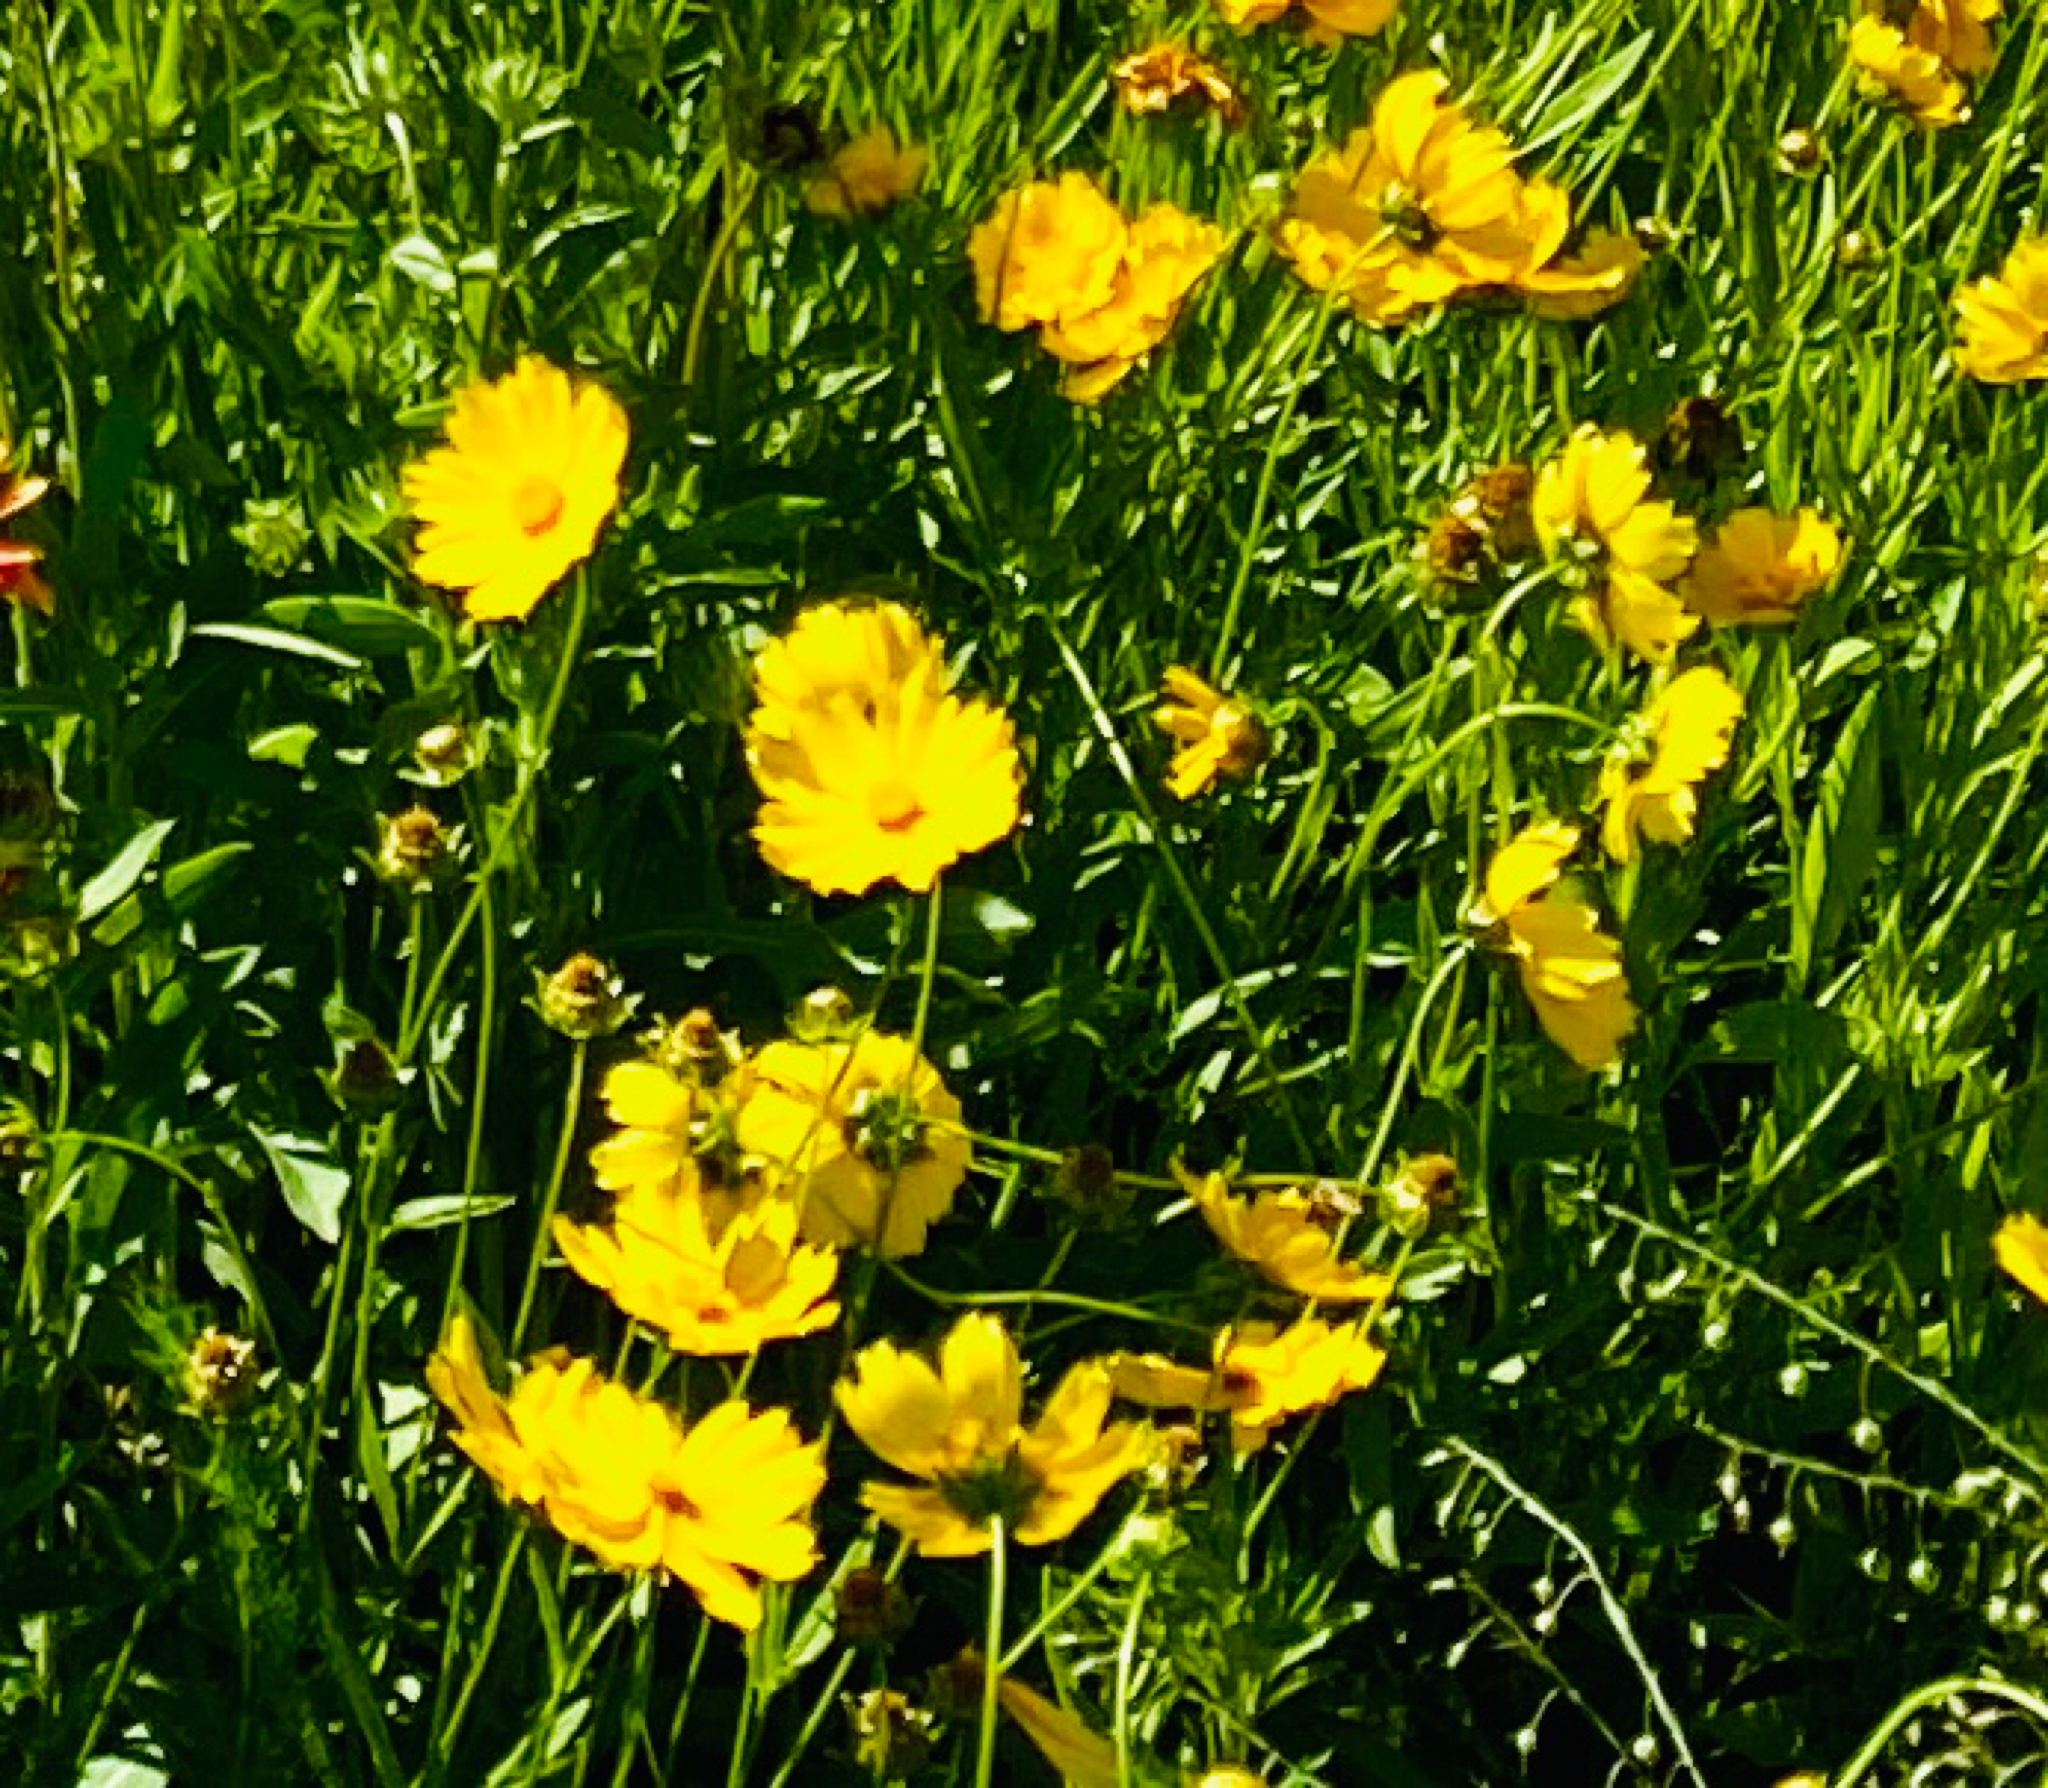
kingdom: Plantae
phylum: Tracheophyta
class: Magnoliopsida
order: Asterales
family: Asteraceae
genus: Coreopsis
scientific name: Coreopsis lanceolata
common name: Garden coreopsis
